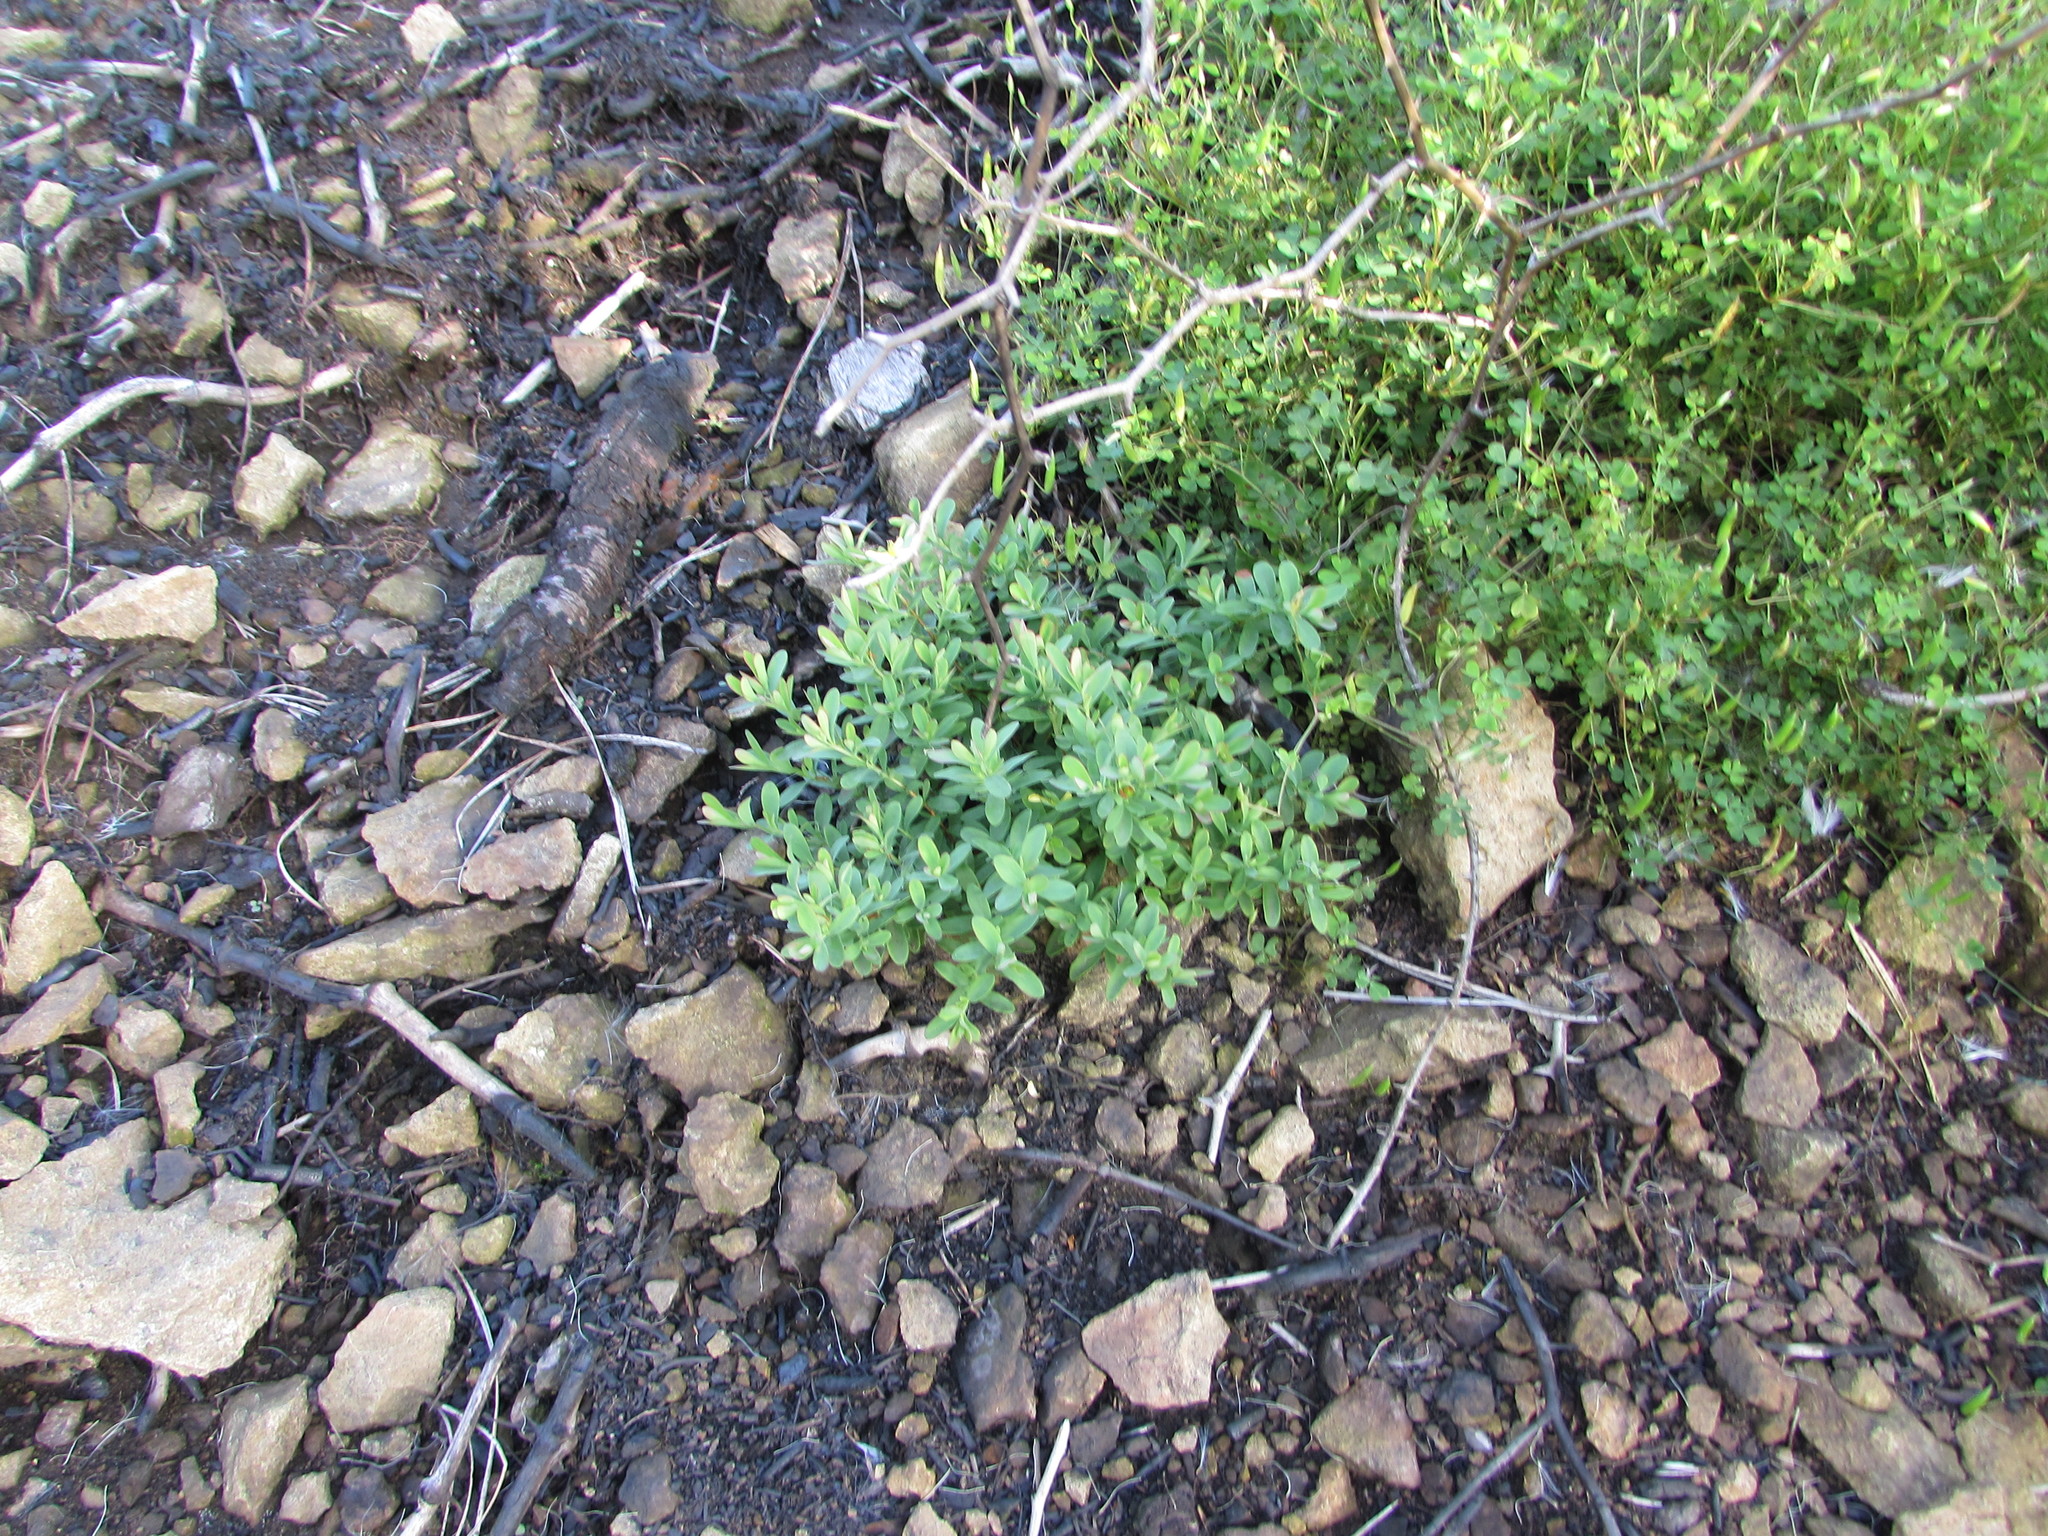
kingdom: Plantae
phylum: Tracheophyta
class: Magnoliopsida
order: Malpighiales
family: Hypericaceae
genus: Hypericum
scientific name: Hypericum hypericoides
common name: St. andrew's cross
